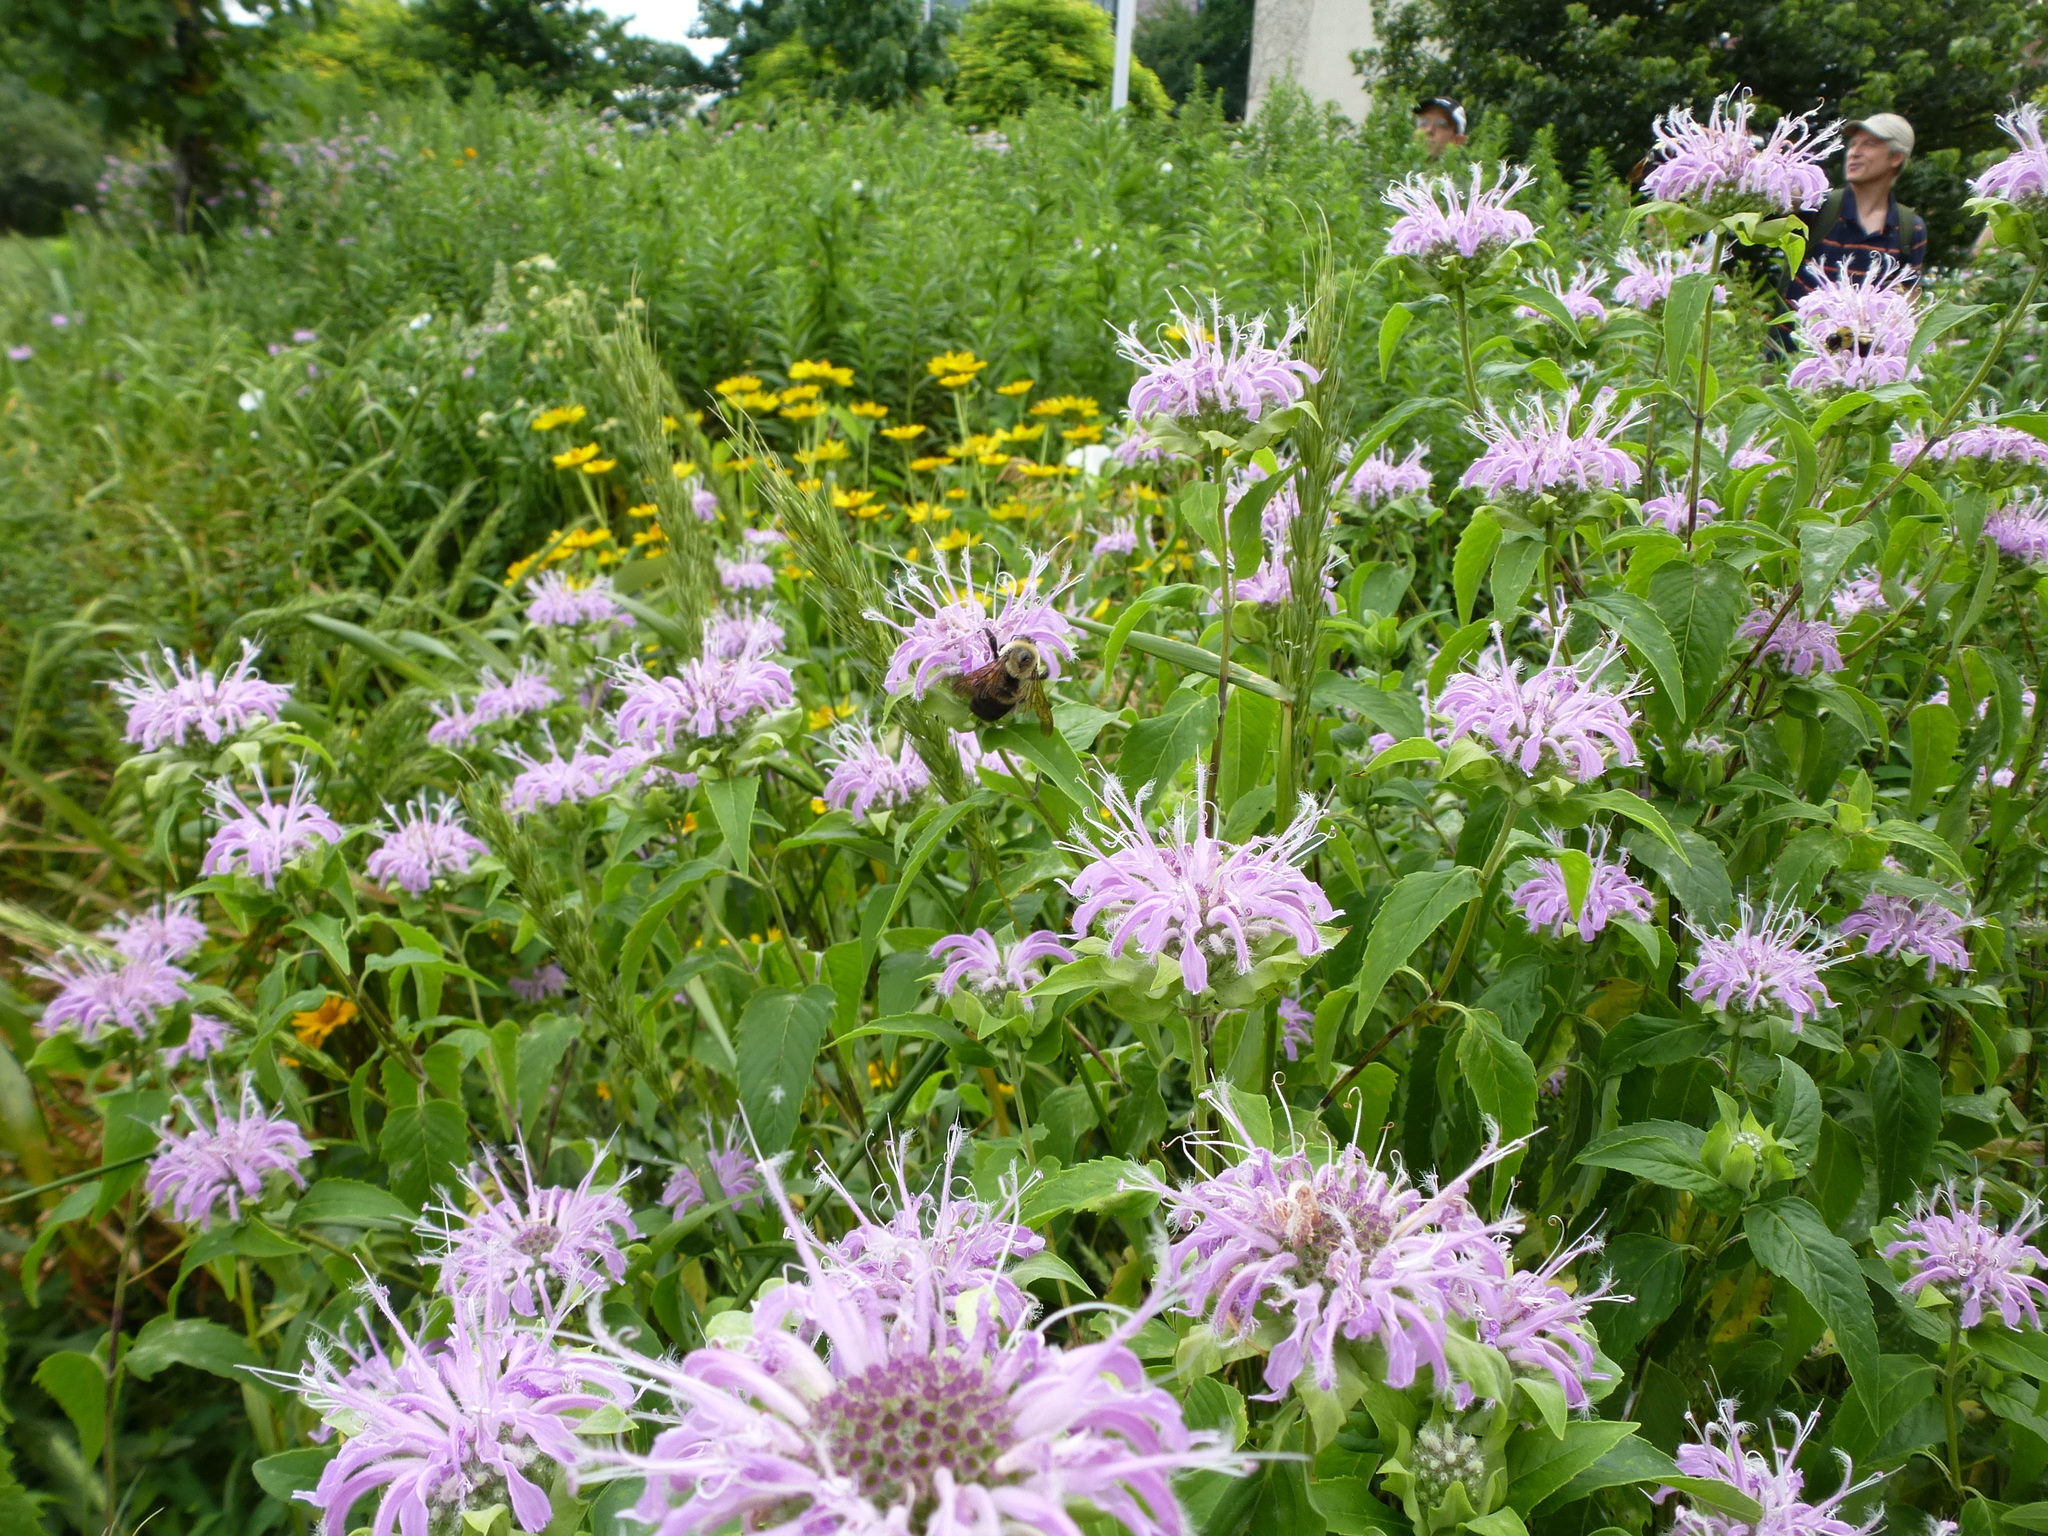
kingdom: Animalia
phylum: Arthropoda
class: Insecta
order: Hymenoptera
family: Apidae
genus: Bombus
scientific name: Bombus griseocollis
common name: Brown-belted bumble bee
